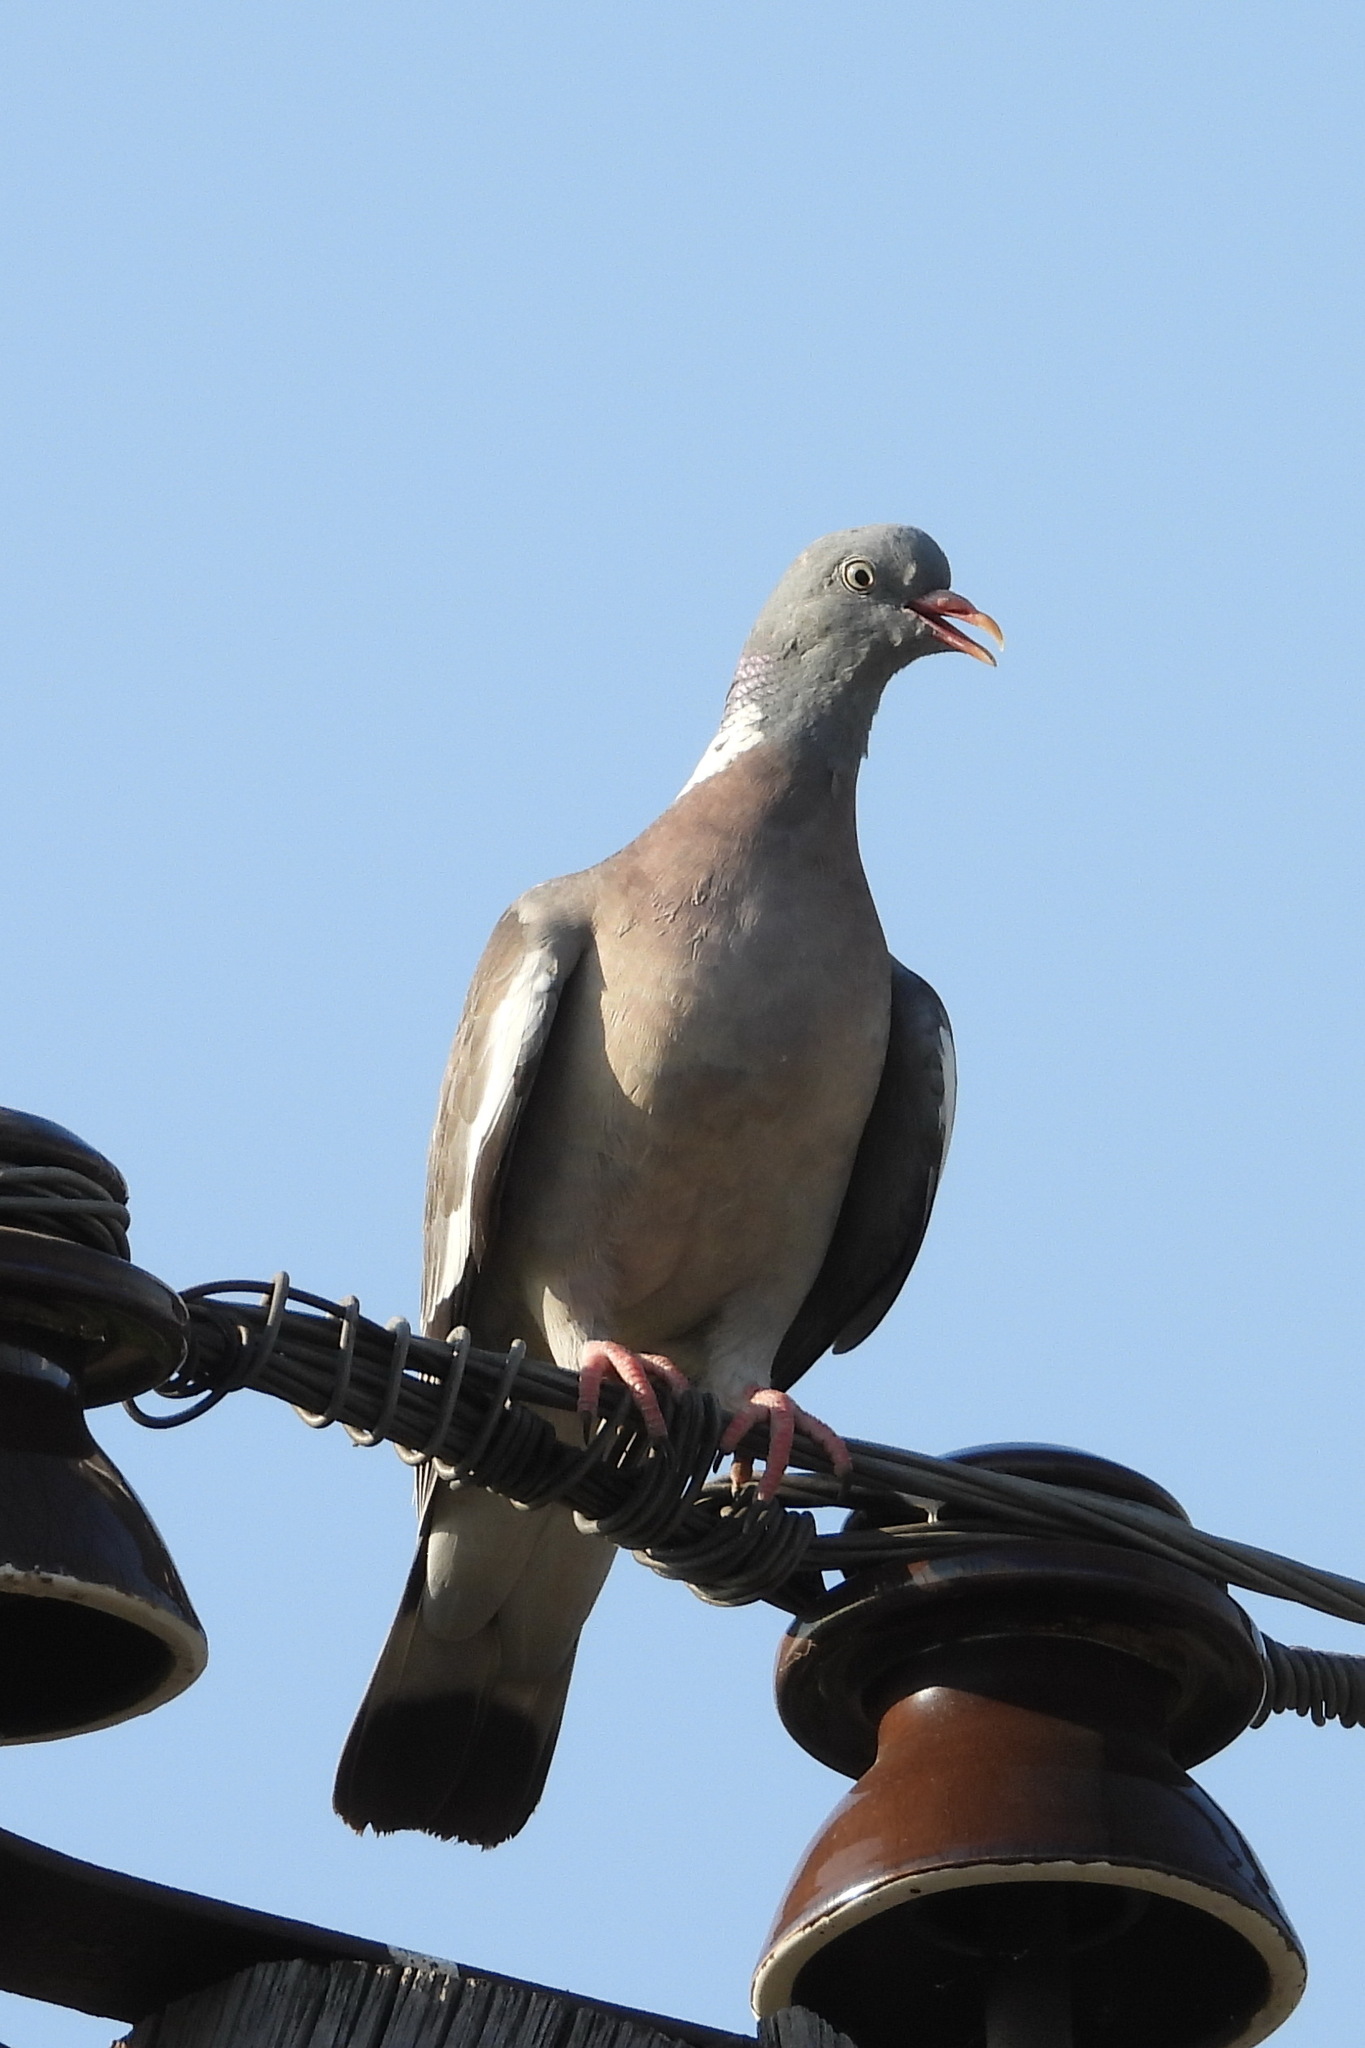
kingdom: Animalia
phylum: Chordata
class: Aves
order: Columbiformes
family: Columbidae
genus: Columba
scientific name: Columba palumbus
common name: Common wood pigeon
